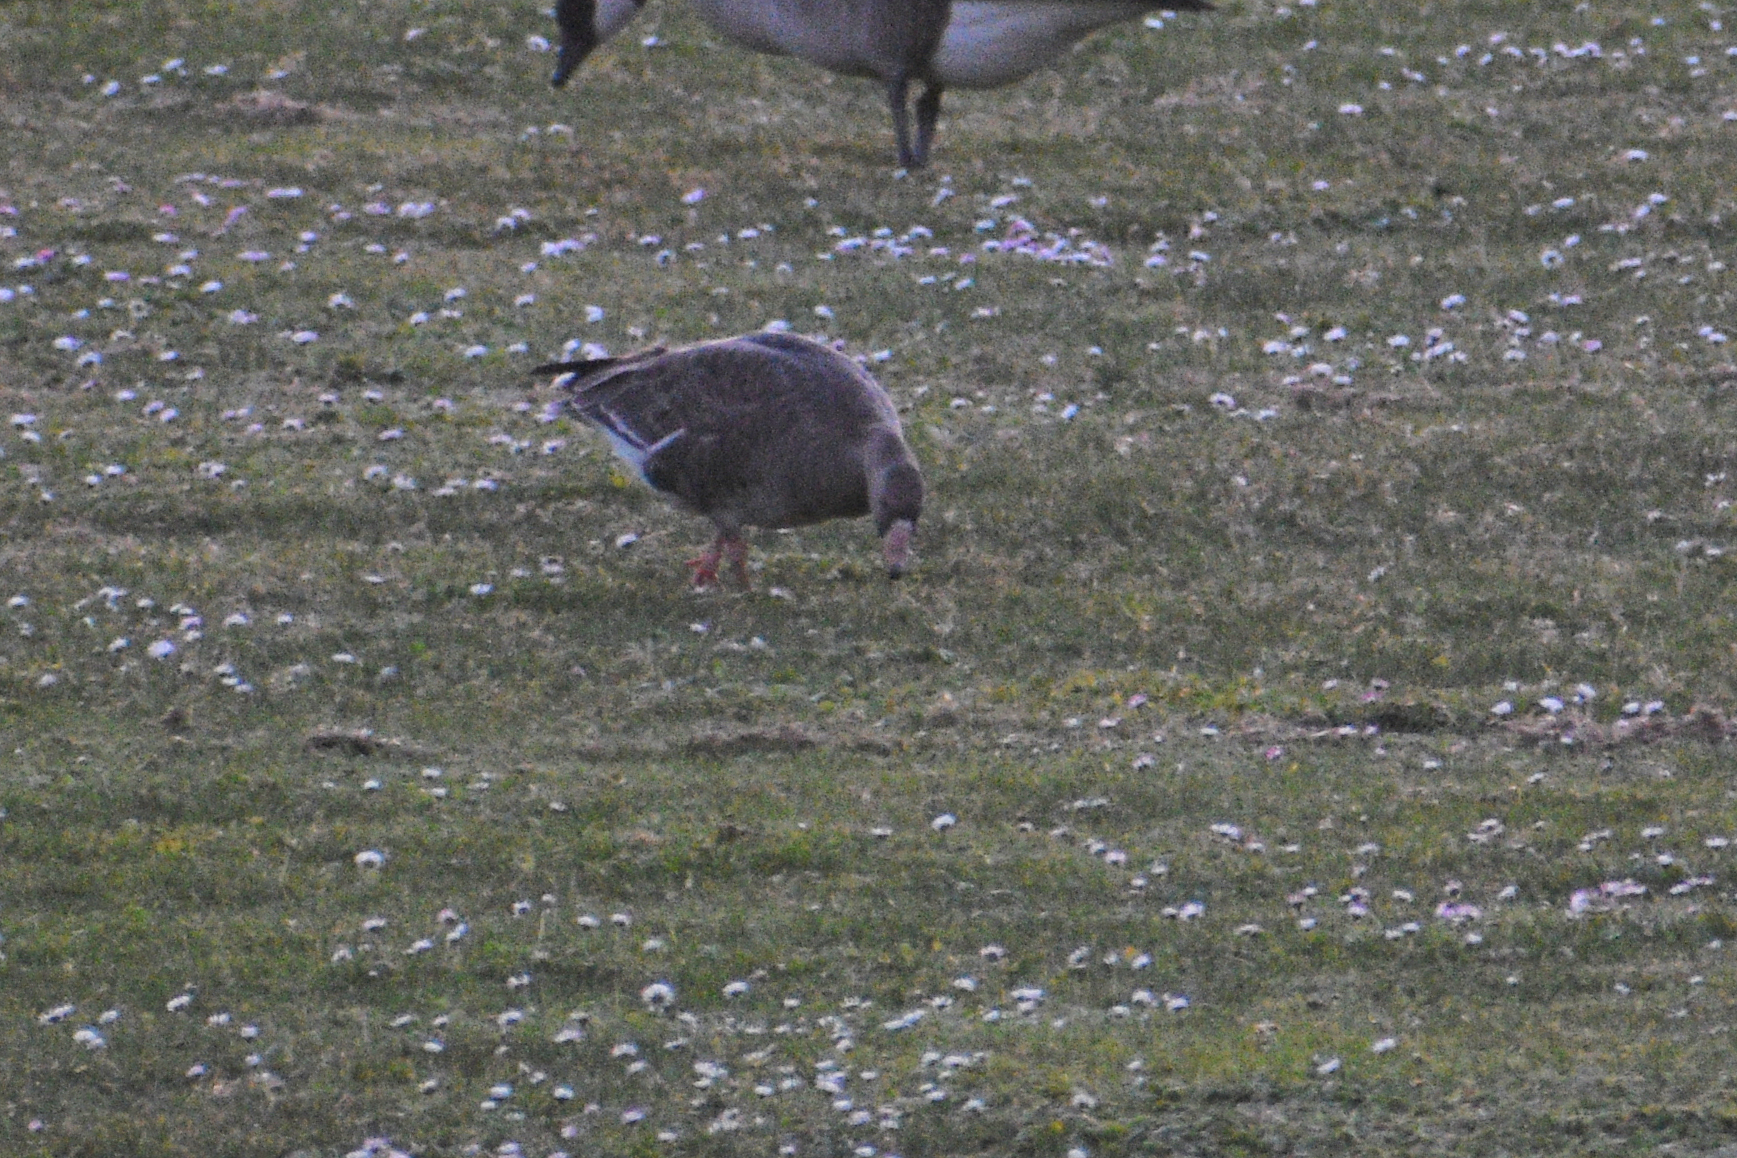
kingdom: Animalia
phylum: Chordata
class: Aves
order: Anseriformes
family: Anatidae
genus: Anser
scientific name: Anser albifrons
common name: Greater white-fronted goose
